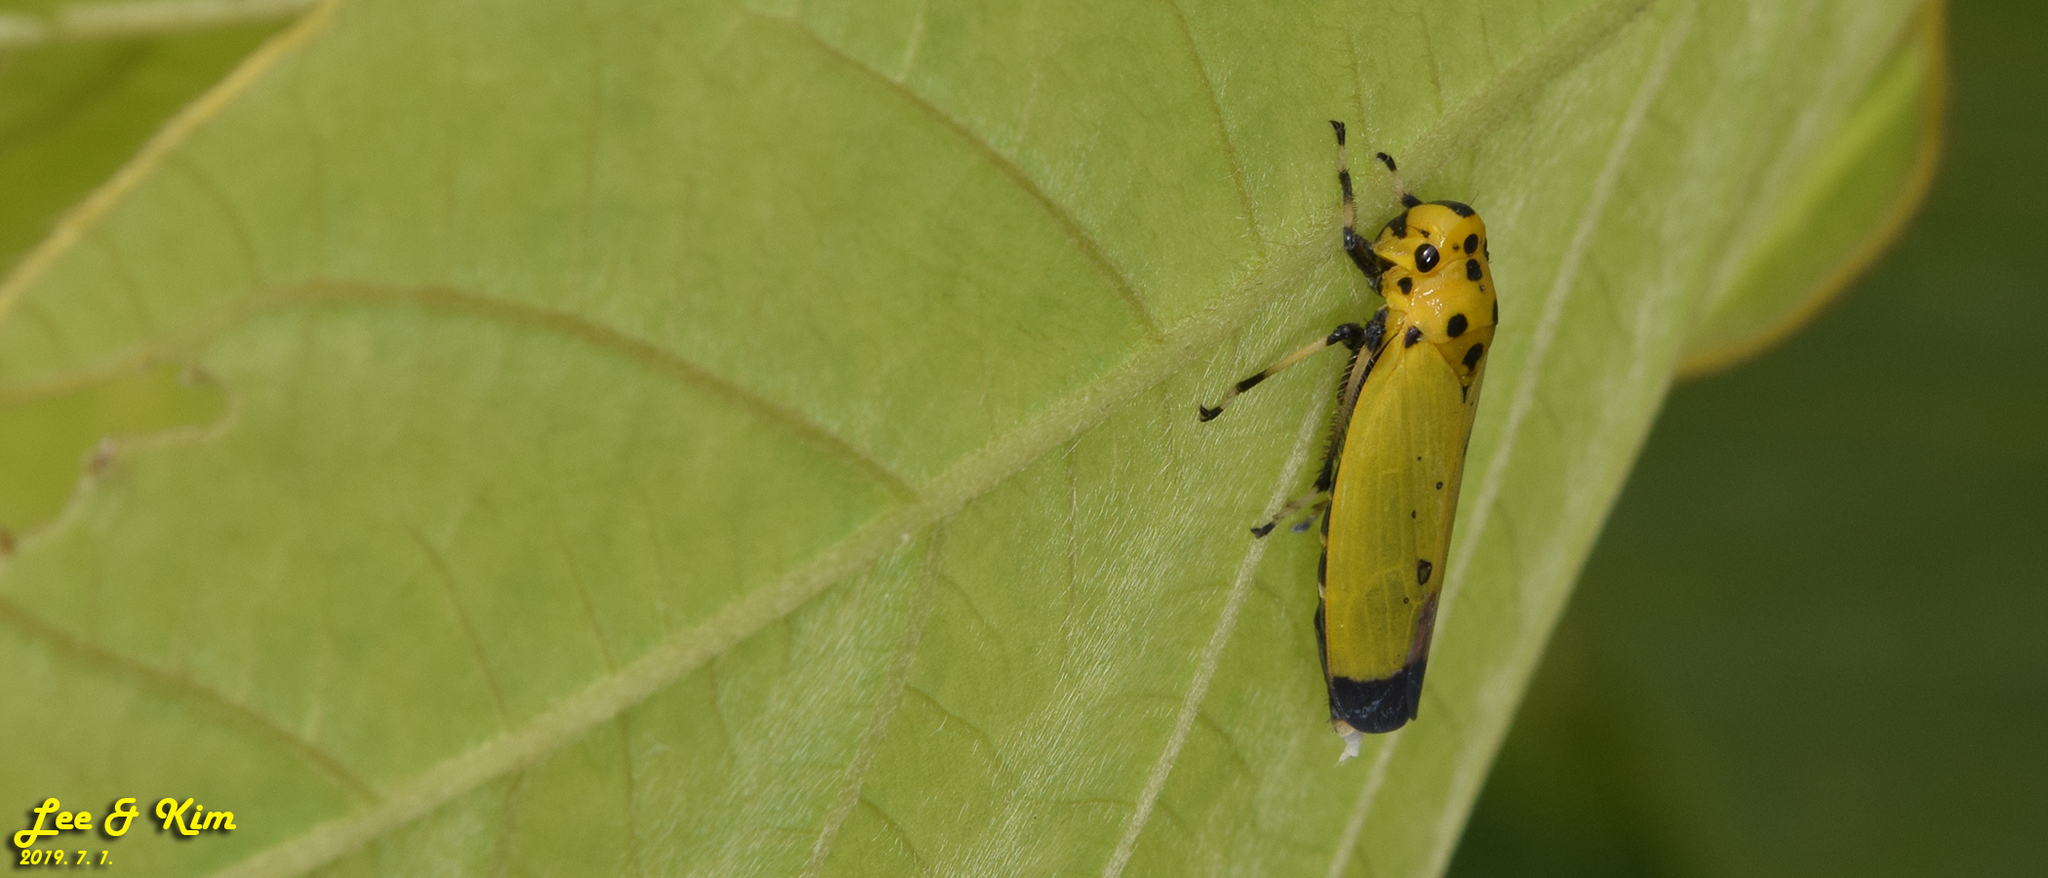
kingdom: Animalia
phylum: Arthropoda
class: Insecta
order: Hemiptera
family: Cicadellidae
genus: Bothrogonia
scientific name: Bothrogonia ferruginea
